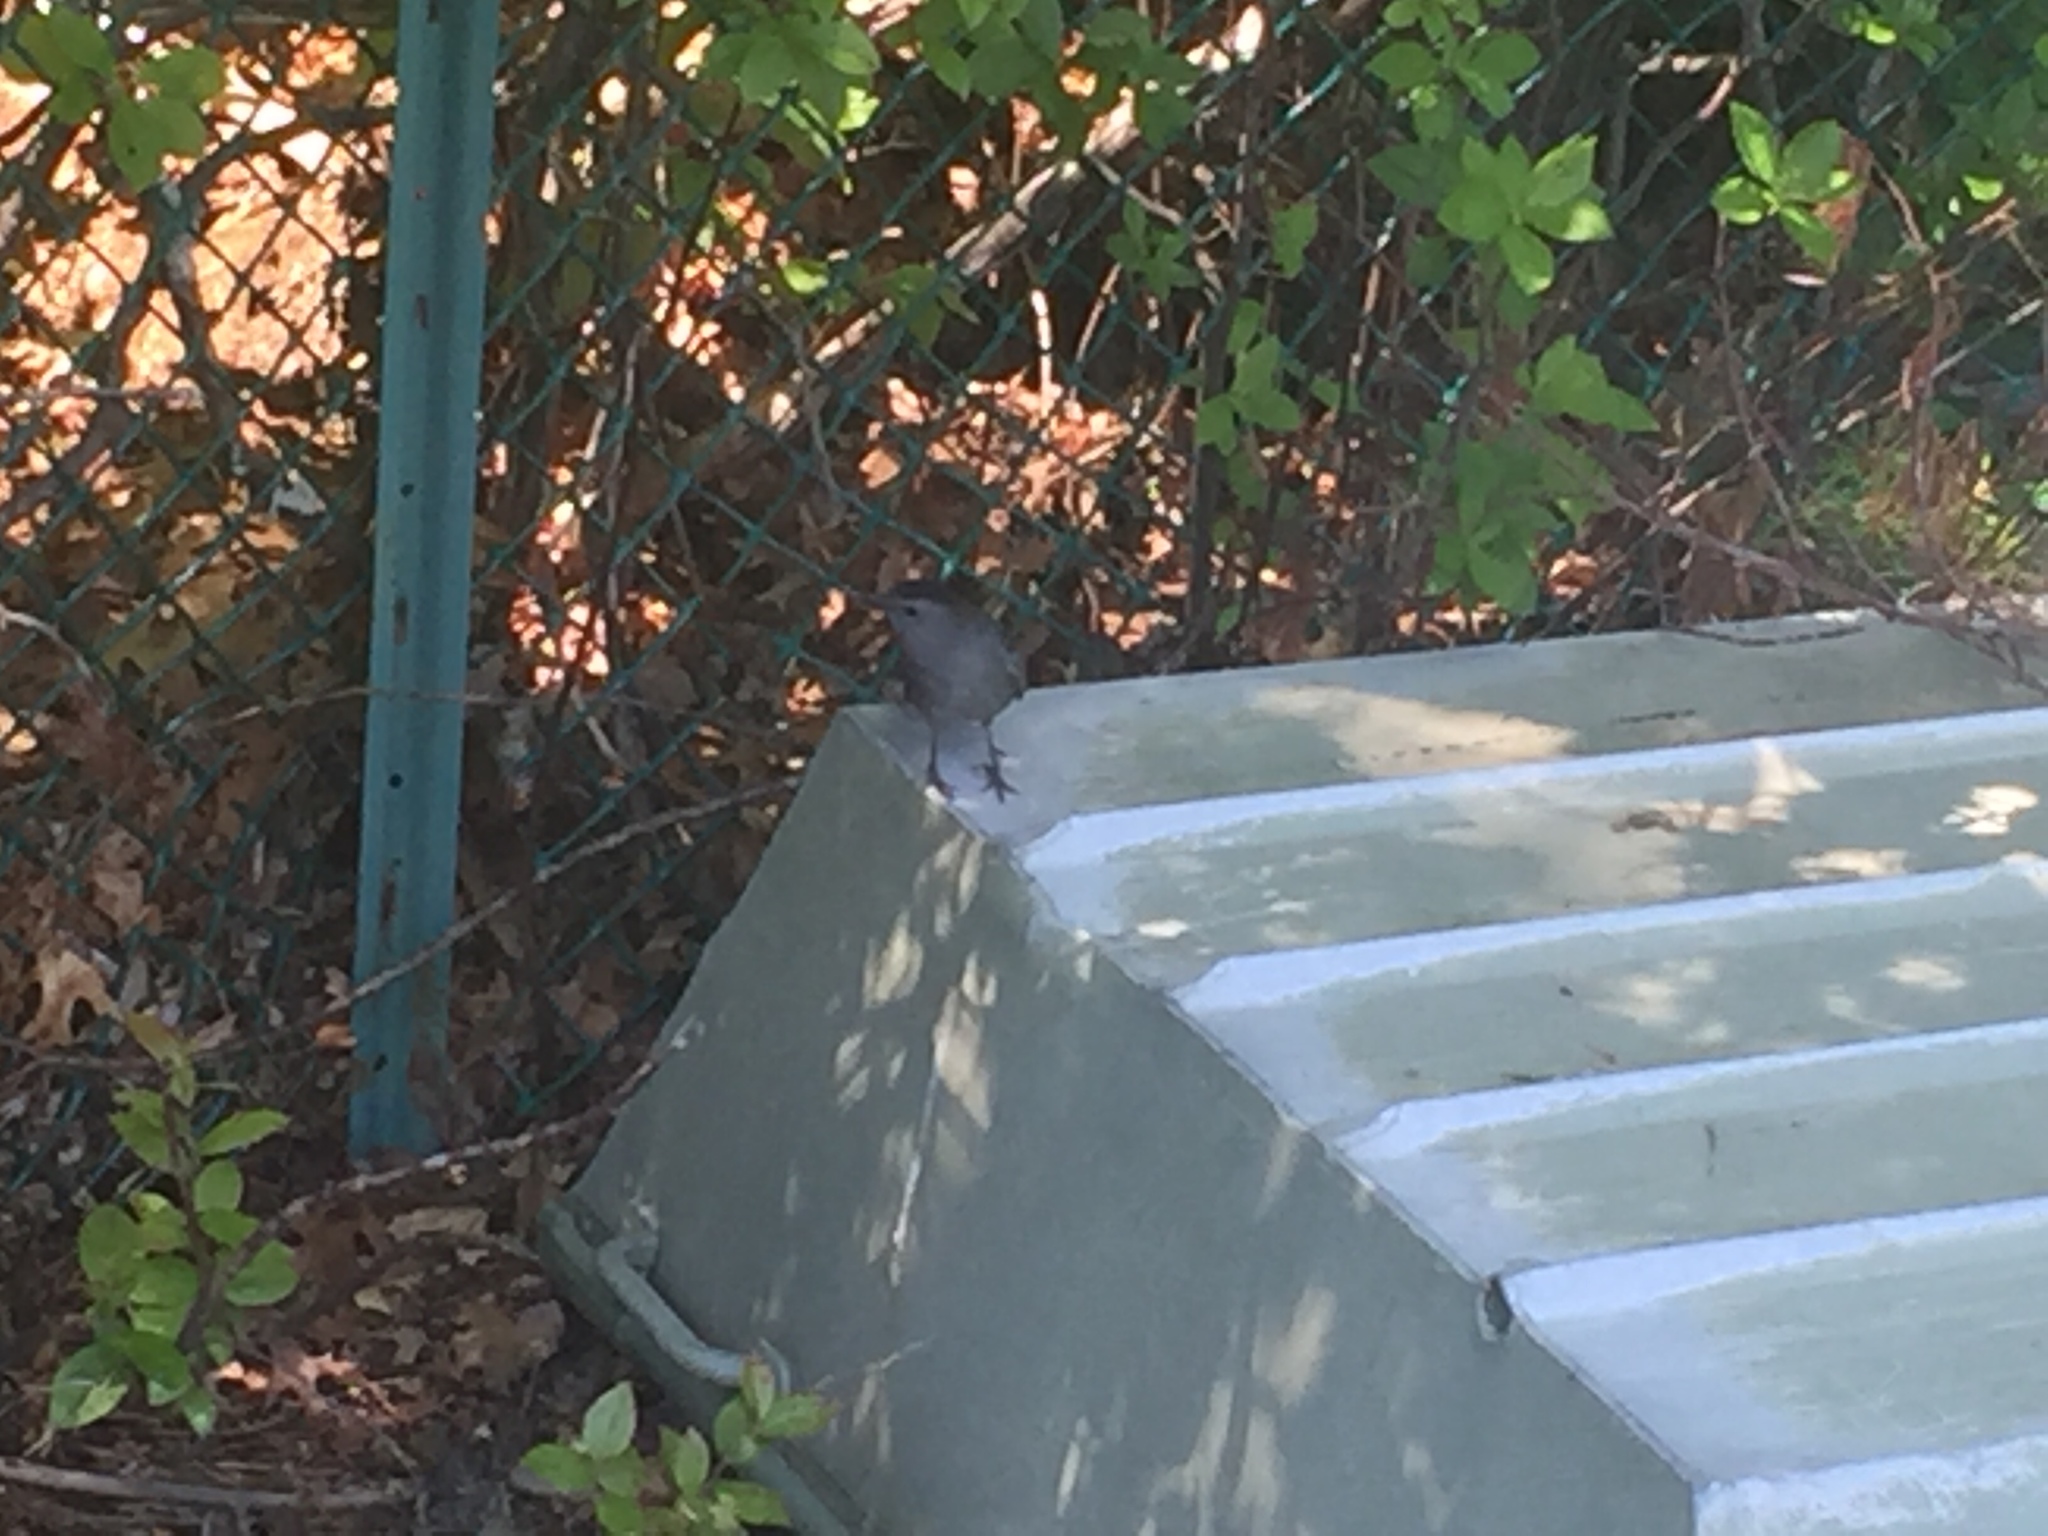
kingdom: Animalia
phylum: Chordata
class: Aves
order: Passeriformes
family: Mimidae
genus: Dumetella
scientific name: Dumetella carolinensis
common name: Gray catbird
